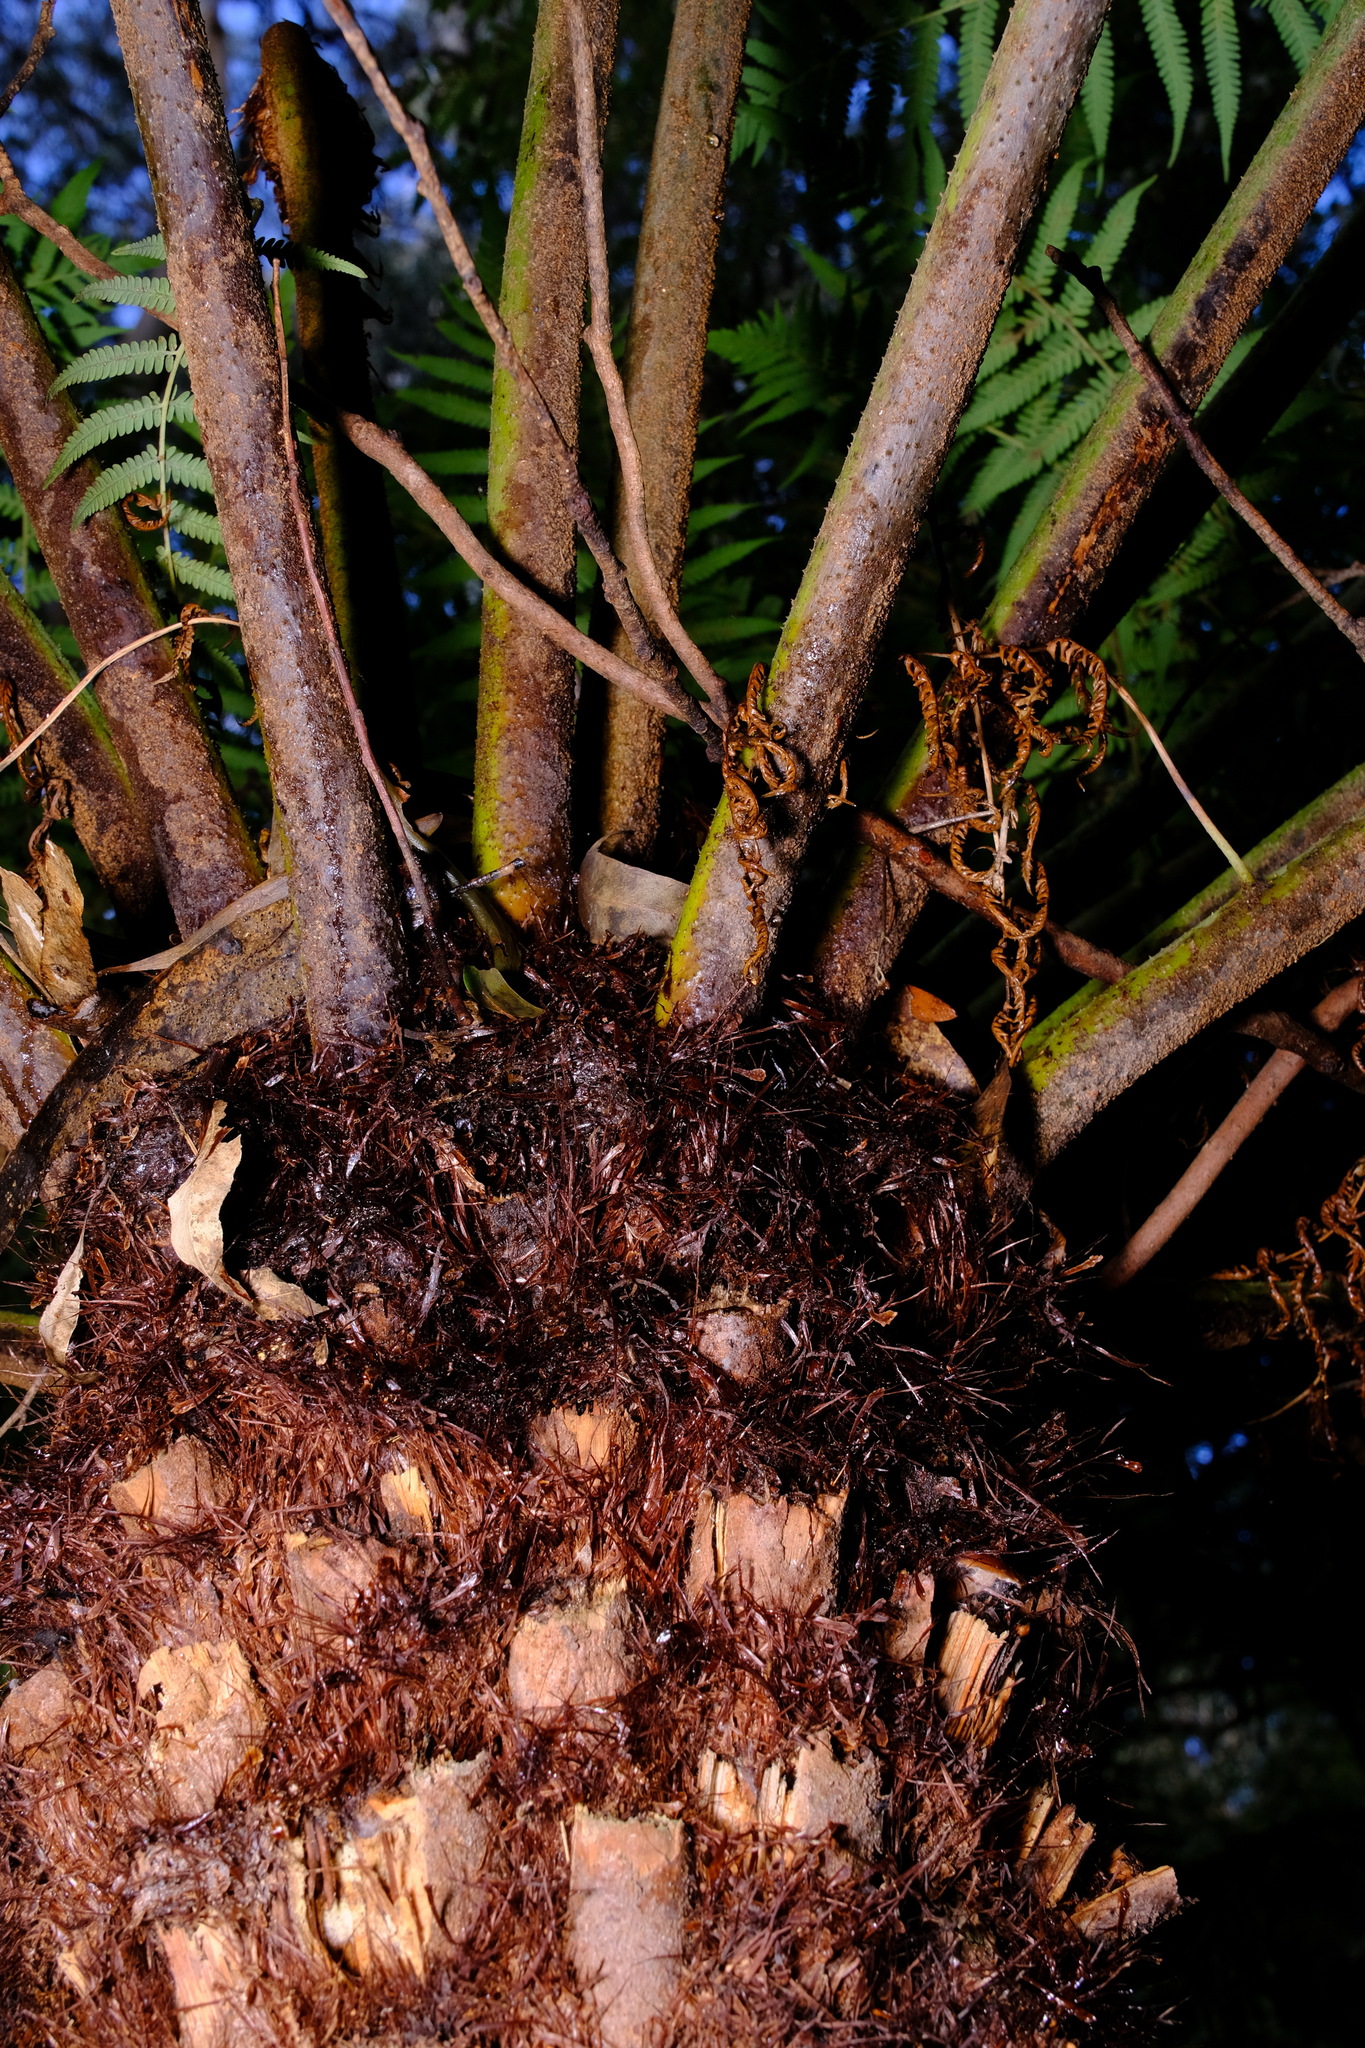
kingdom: Plantae
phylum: Tracheophyta
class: Polypodiopsida
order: Cyatheales
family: Cyatheaceae
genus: Alsophila
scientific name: Alsophila australis
